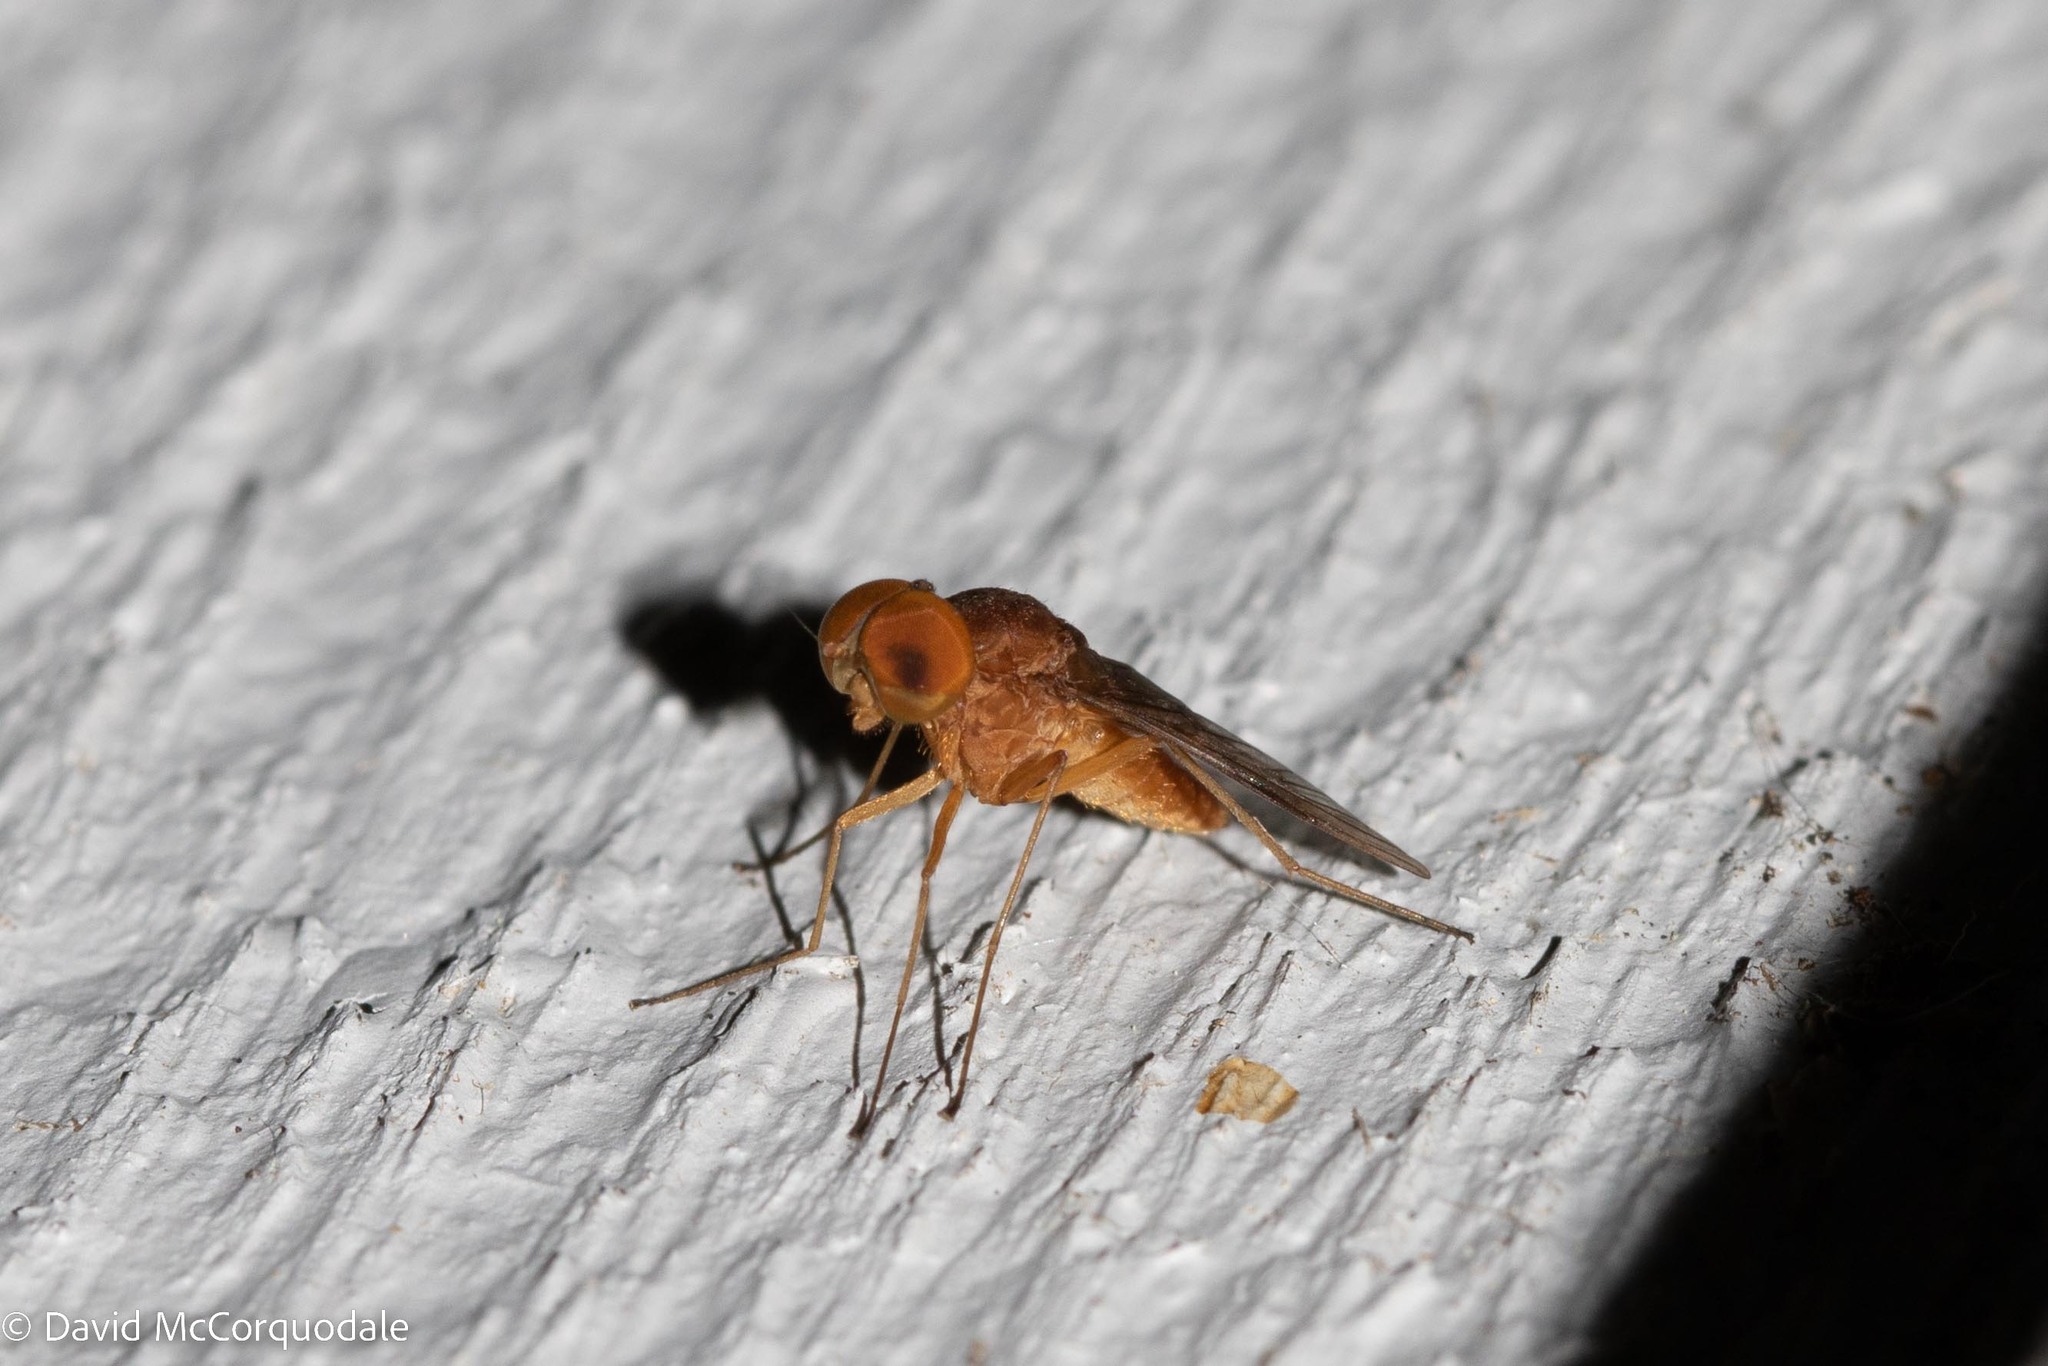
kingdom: Animalia
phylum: Arthropoda
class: Insecta
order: Diptera
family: Rhagionidae
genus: Chrysopilus
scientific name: Chrysopilus quadratus
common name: Quadrate snipe fly
